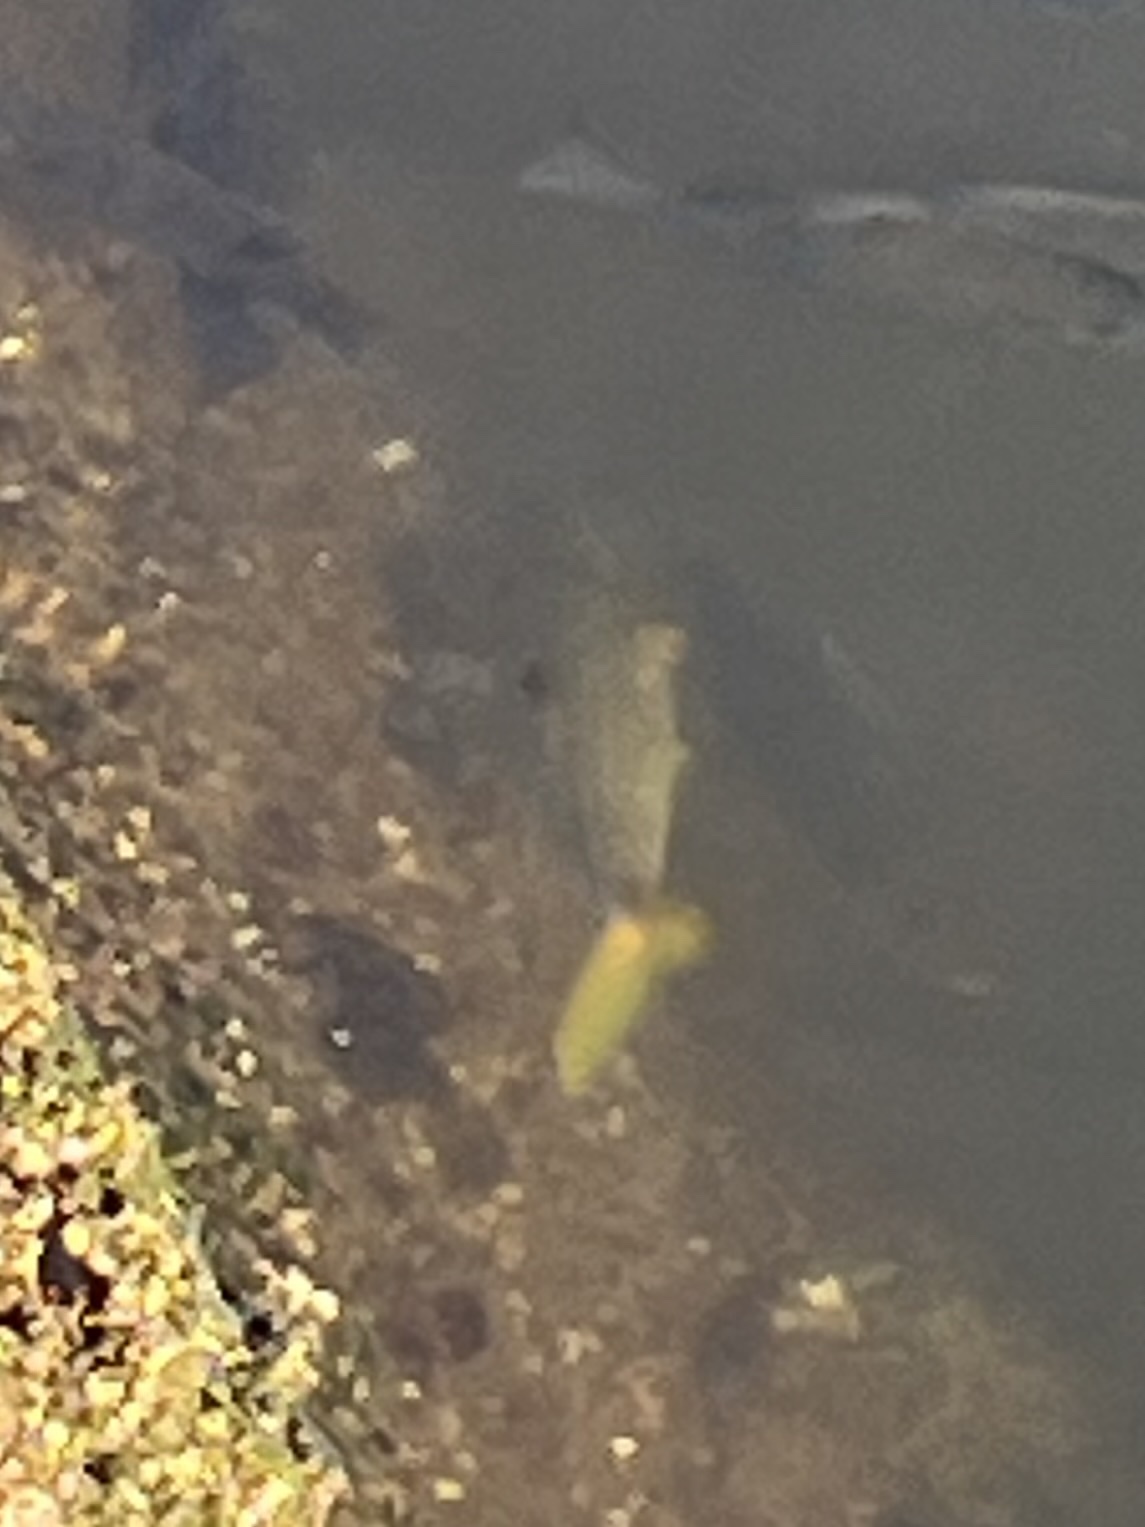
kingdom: Animalia
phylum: Chordata
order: Perciformes
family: Mullidae
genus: Mulloidichthys
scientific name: Mulloidichthys flavolineatus
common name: Yellowstripe goatfish
